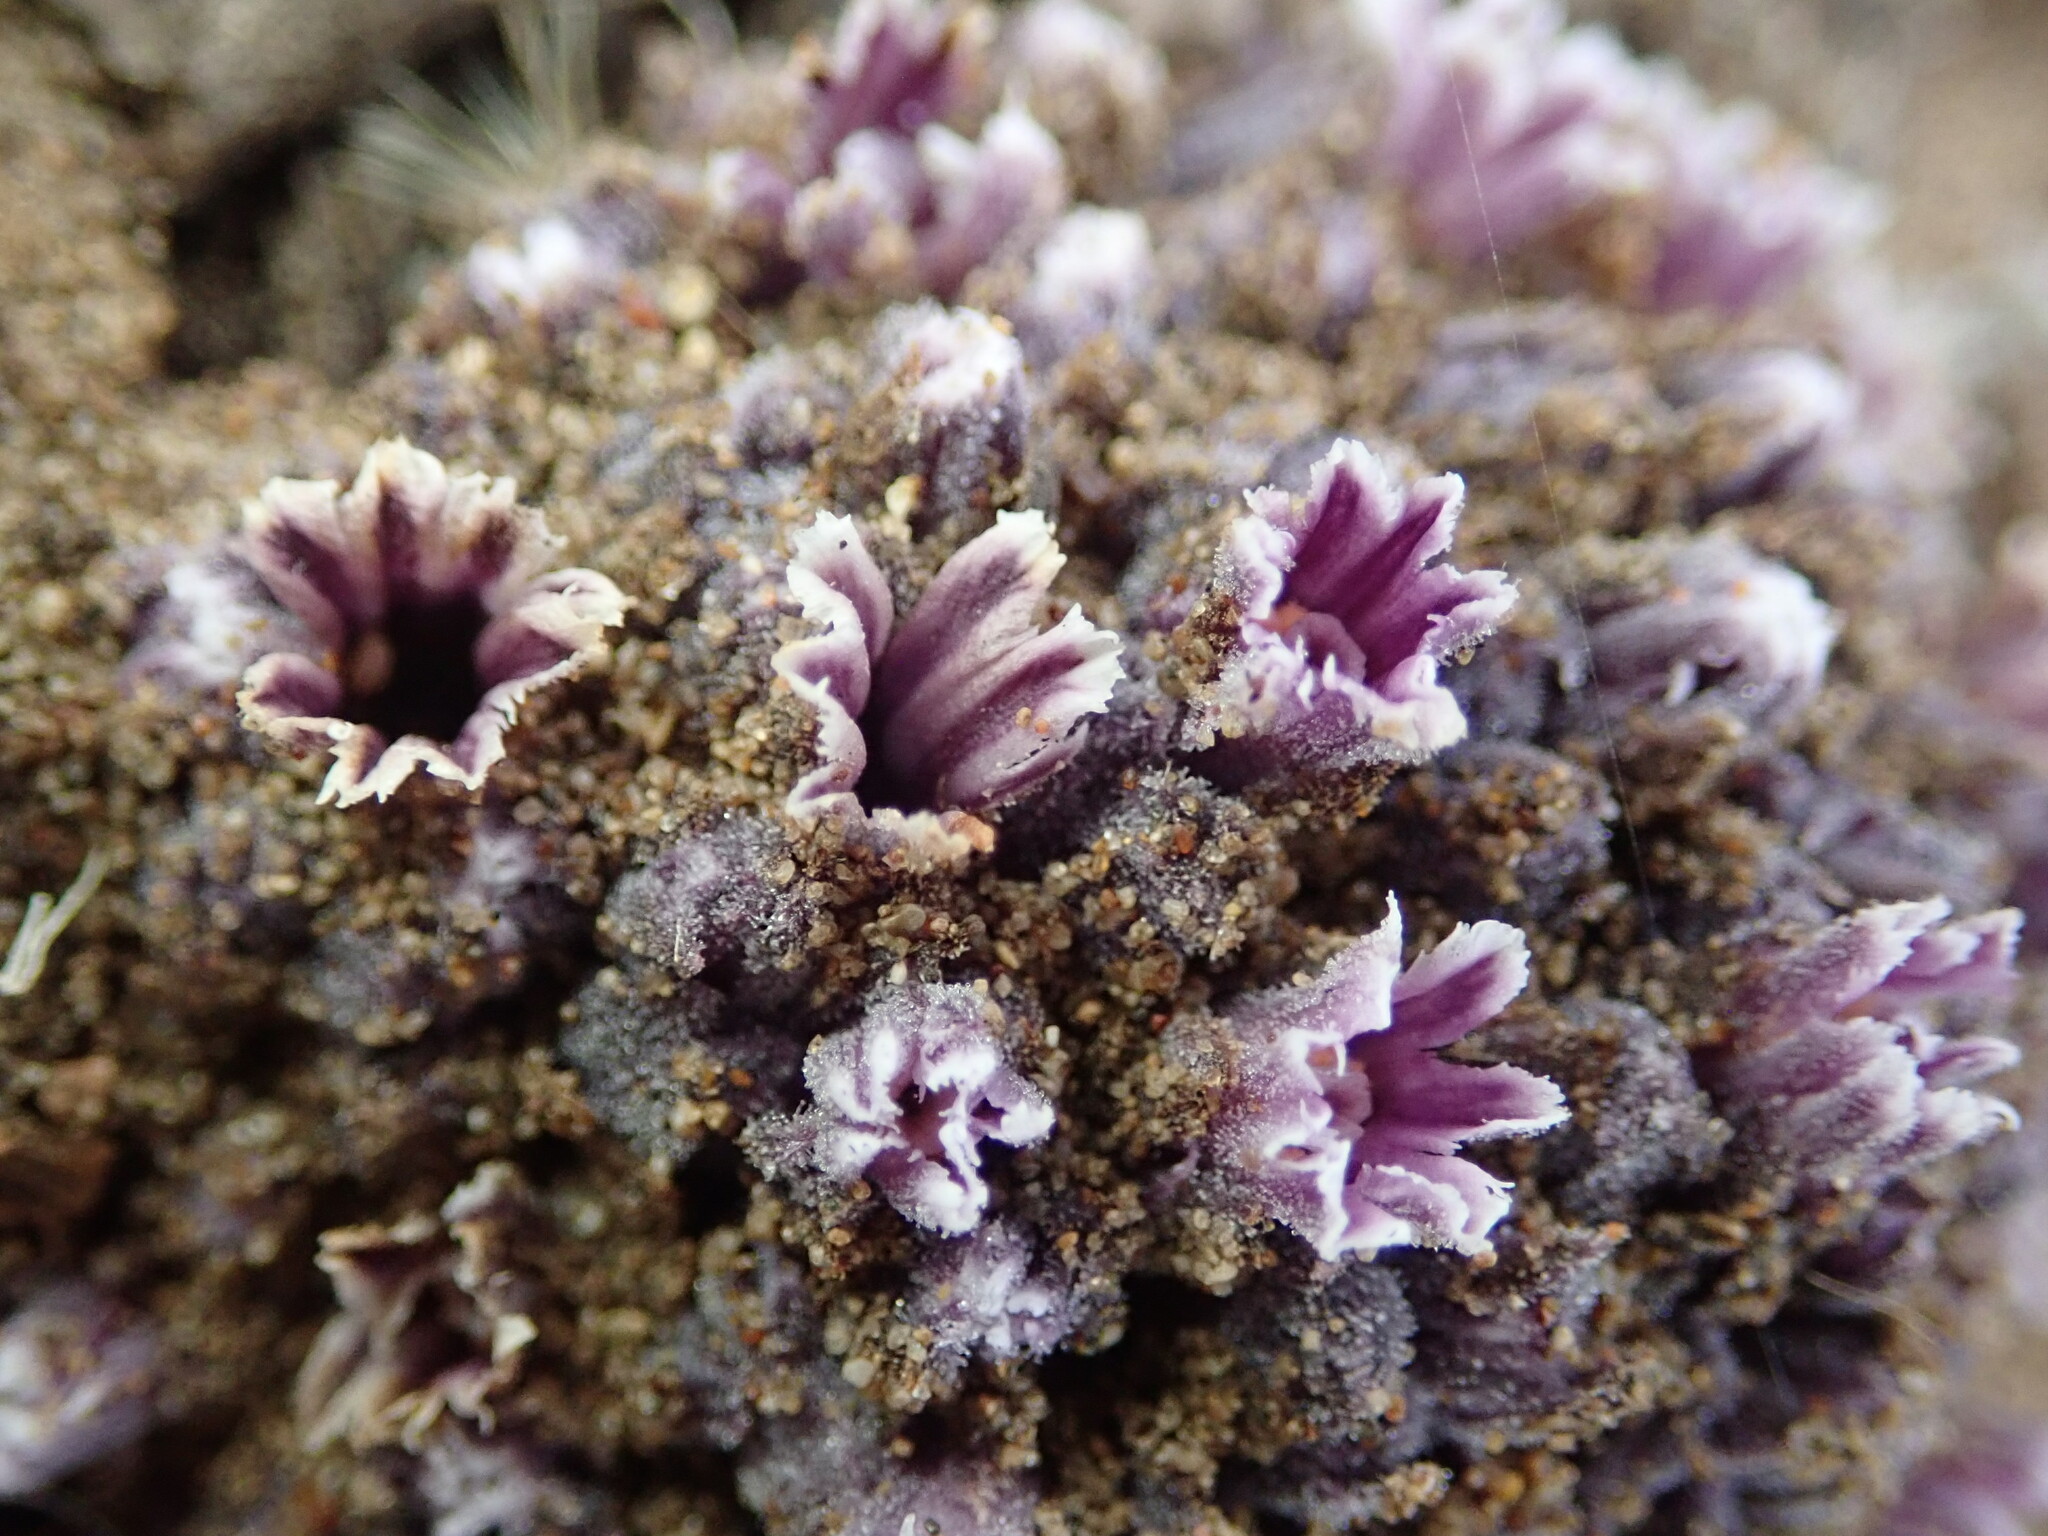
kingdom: Plantae
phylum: Tracheophyta
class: Magnoliopsida
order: Boraginales
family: Lennoaceae
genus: Pholisma
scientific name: Pholisma arenarium
